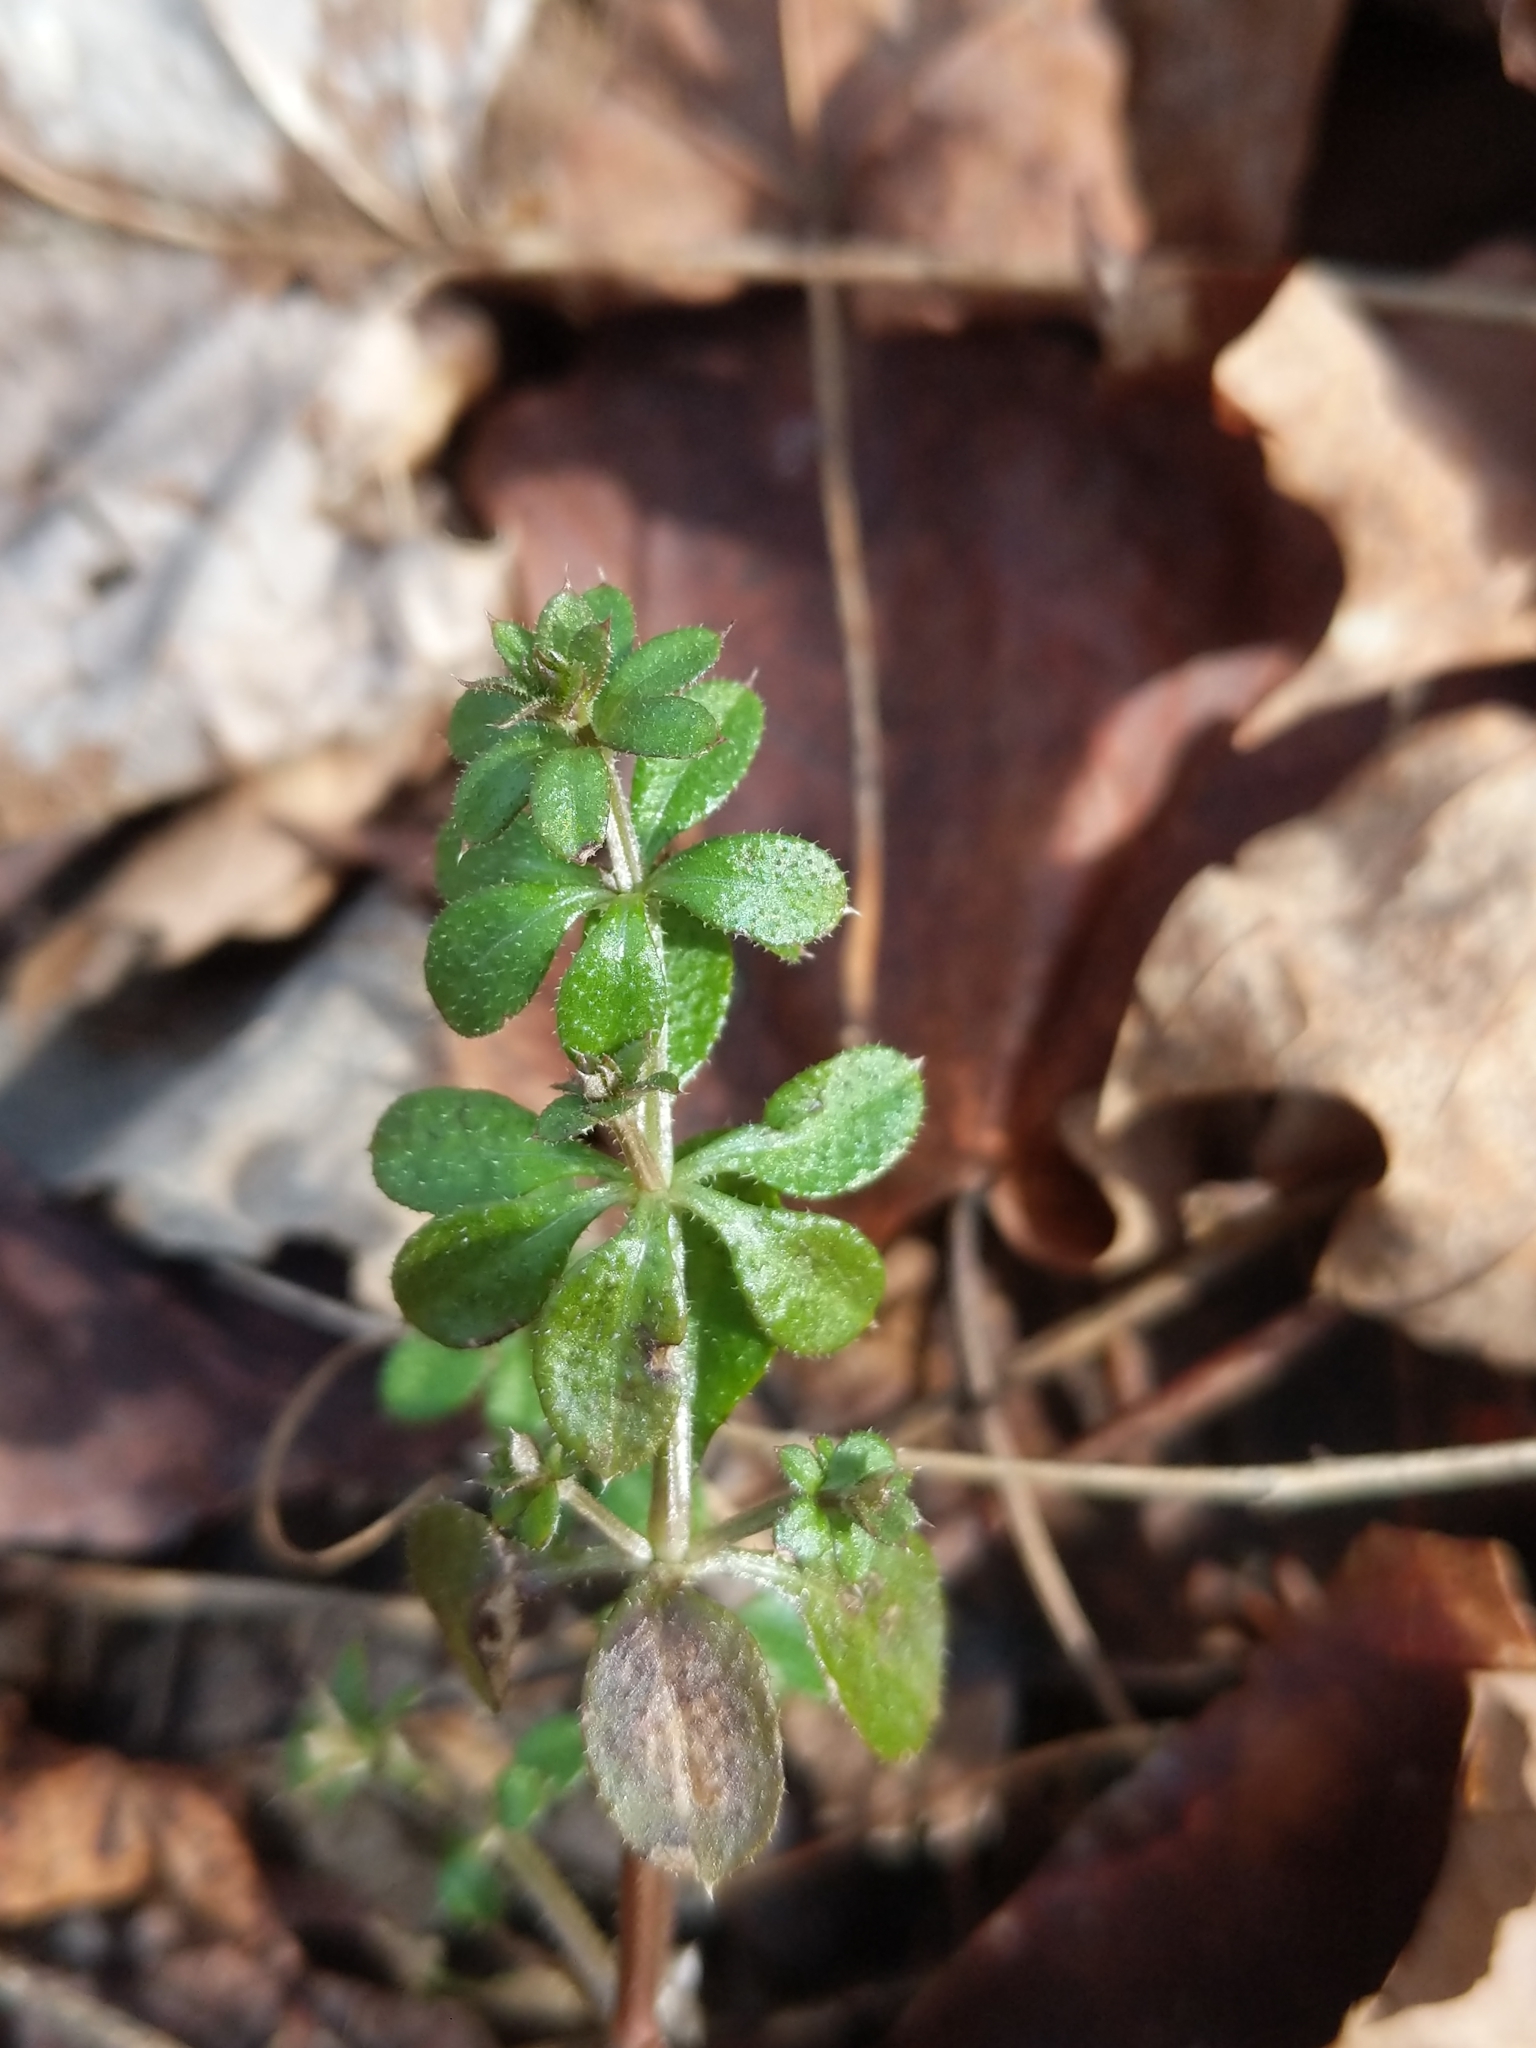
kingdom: Plantae
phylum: Tracheophyta
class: Magnoliopsida
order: Gentianales
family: Rubiaceae
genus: Galium
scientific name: Galium aparine
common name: Cleavers
